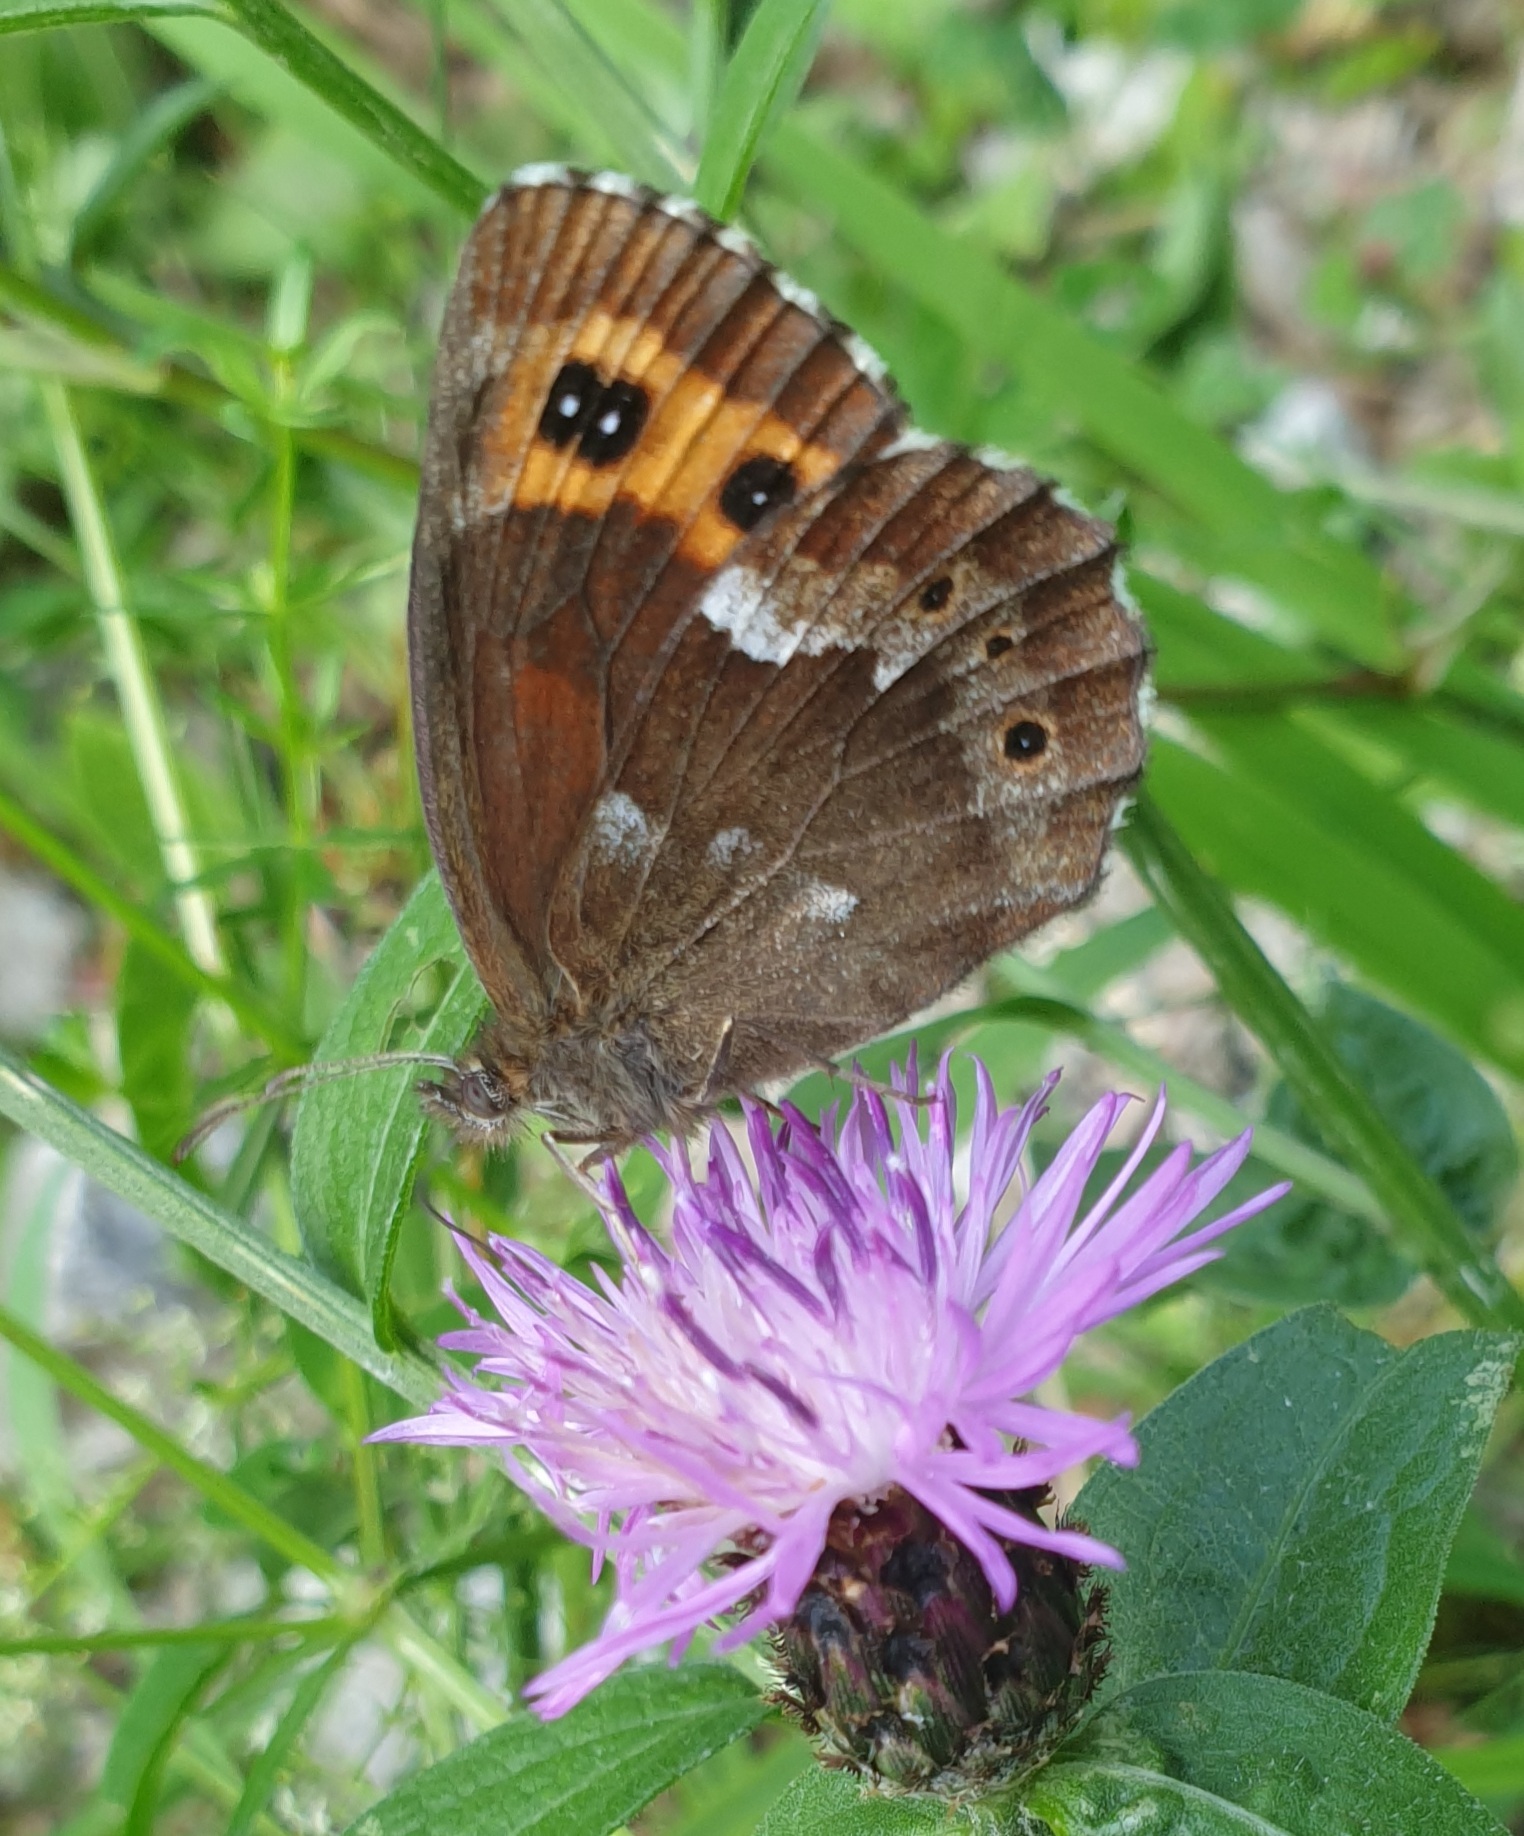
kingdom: Animalia
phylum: Arthropoda
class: Insecta
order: Lepidoptera
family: Nymphalidae
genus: Erebia
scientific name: Erebia ligea
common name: Arran brown
